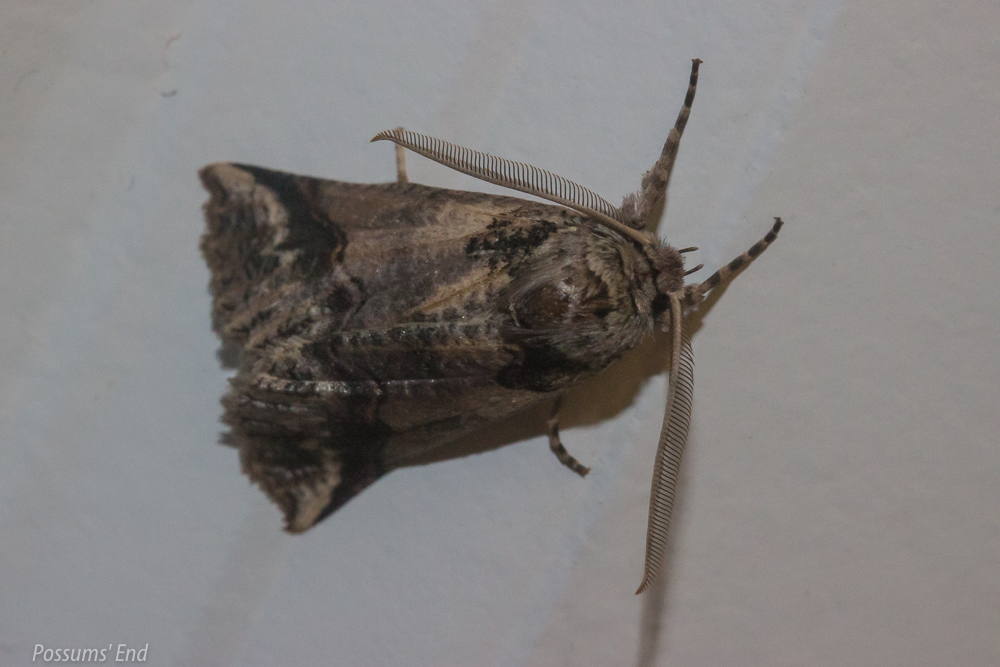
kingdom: Animalia
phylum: Arthropoda
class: Insecta
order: Lepidoptera
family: Geometridae
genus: Declana
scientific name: Declana
